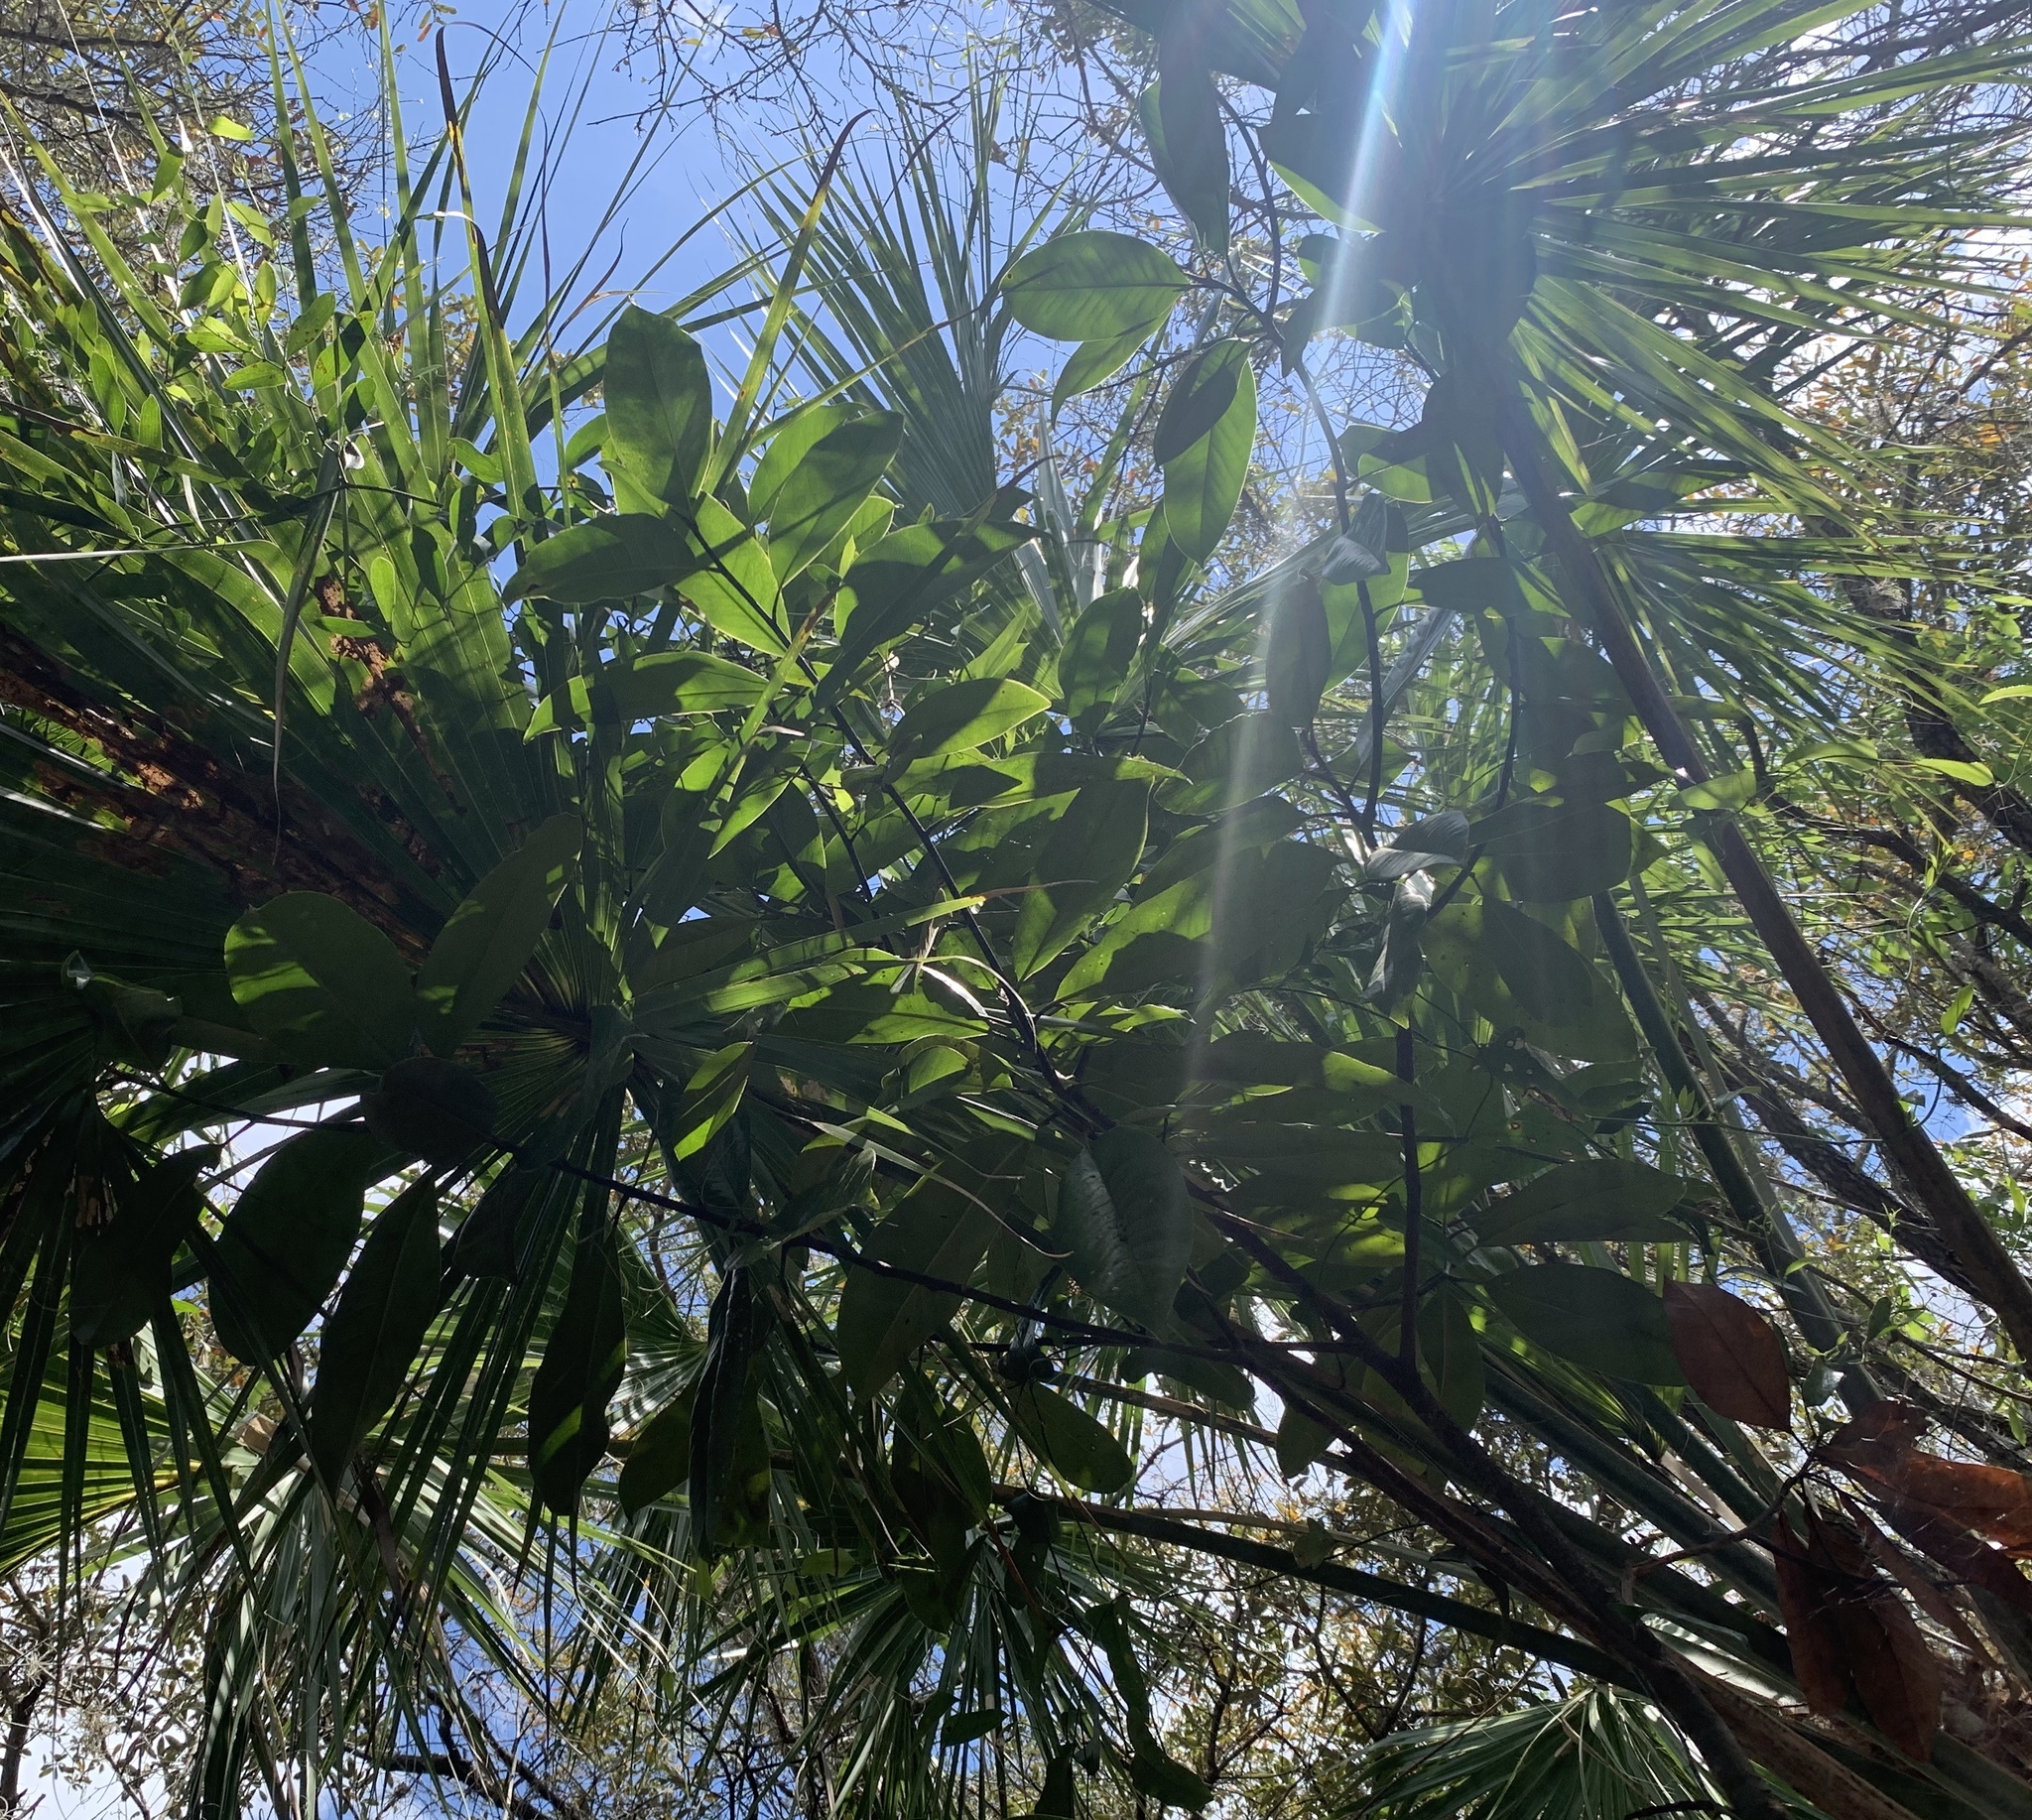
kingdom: Plantae
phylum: Tracheophyta
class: Magnoliopsida
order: Magnoliales
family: Magnoliaceae
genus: Magnolia
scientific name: Magnolia grandiflora
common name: Southern magnolia
